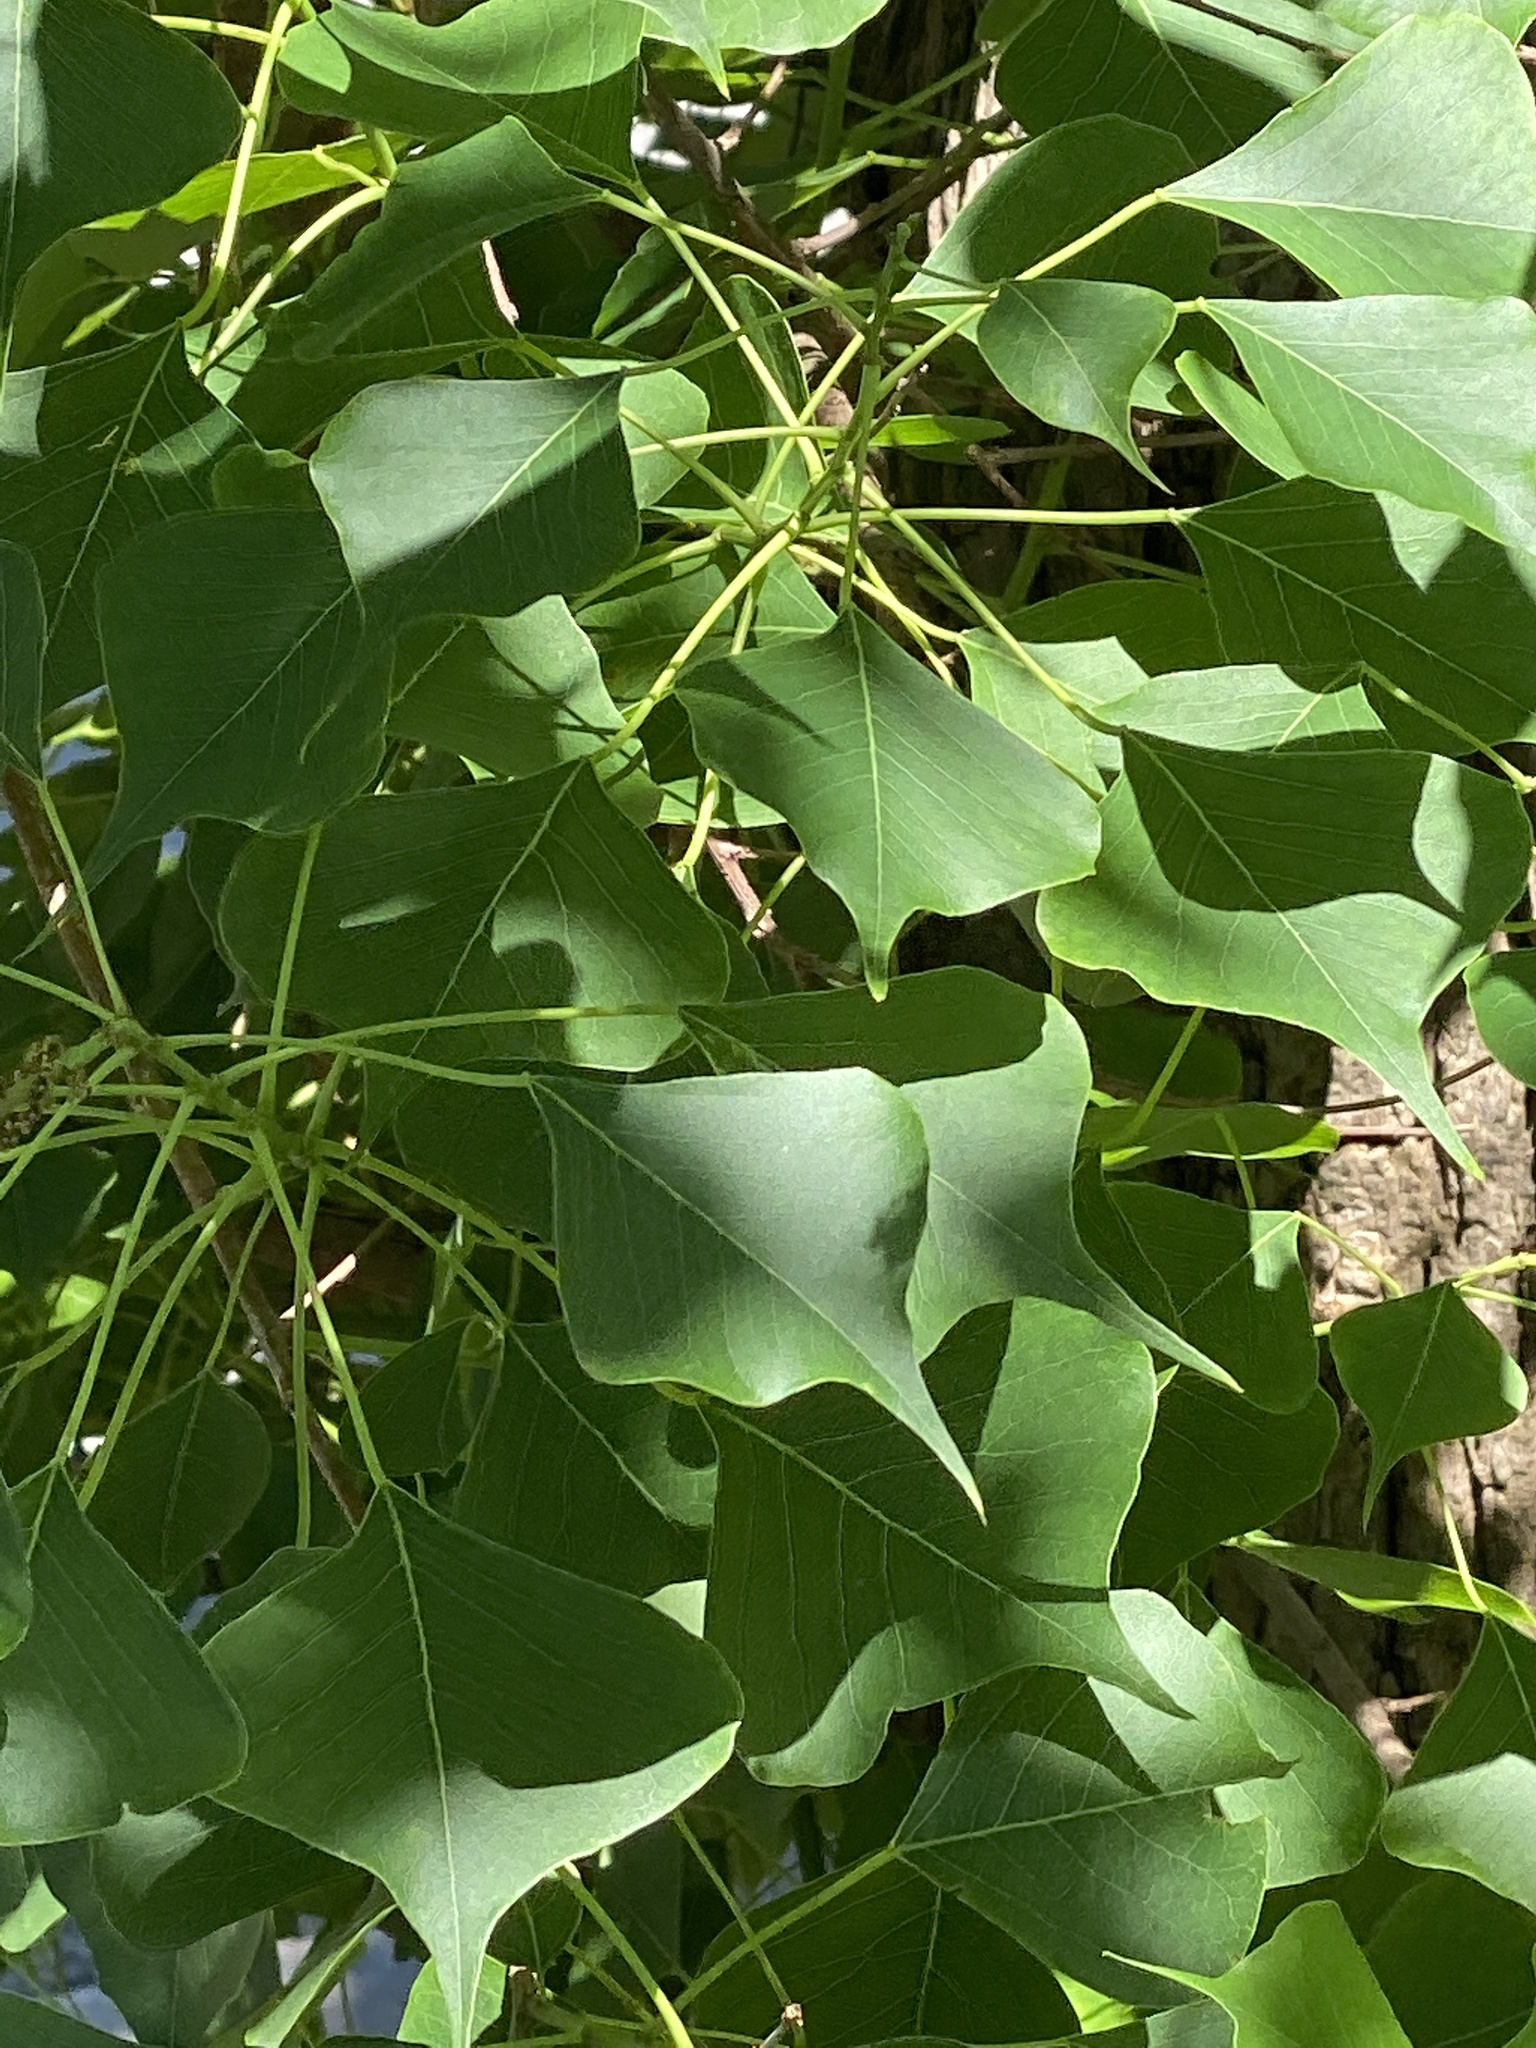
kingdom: Plantae
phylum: Tracheophyta
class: Magnoliopsida
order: Malpighiales
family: Euphorbiaceae
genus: Triadica
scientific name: Triadica sebifera
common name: Chinese tallow
